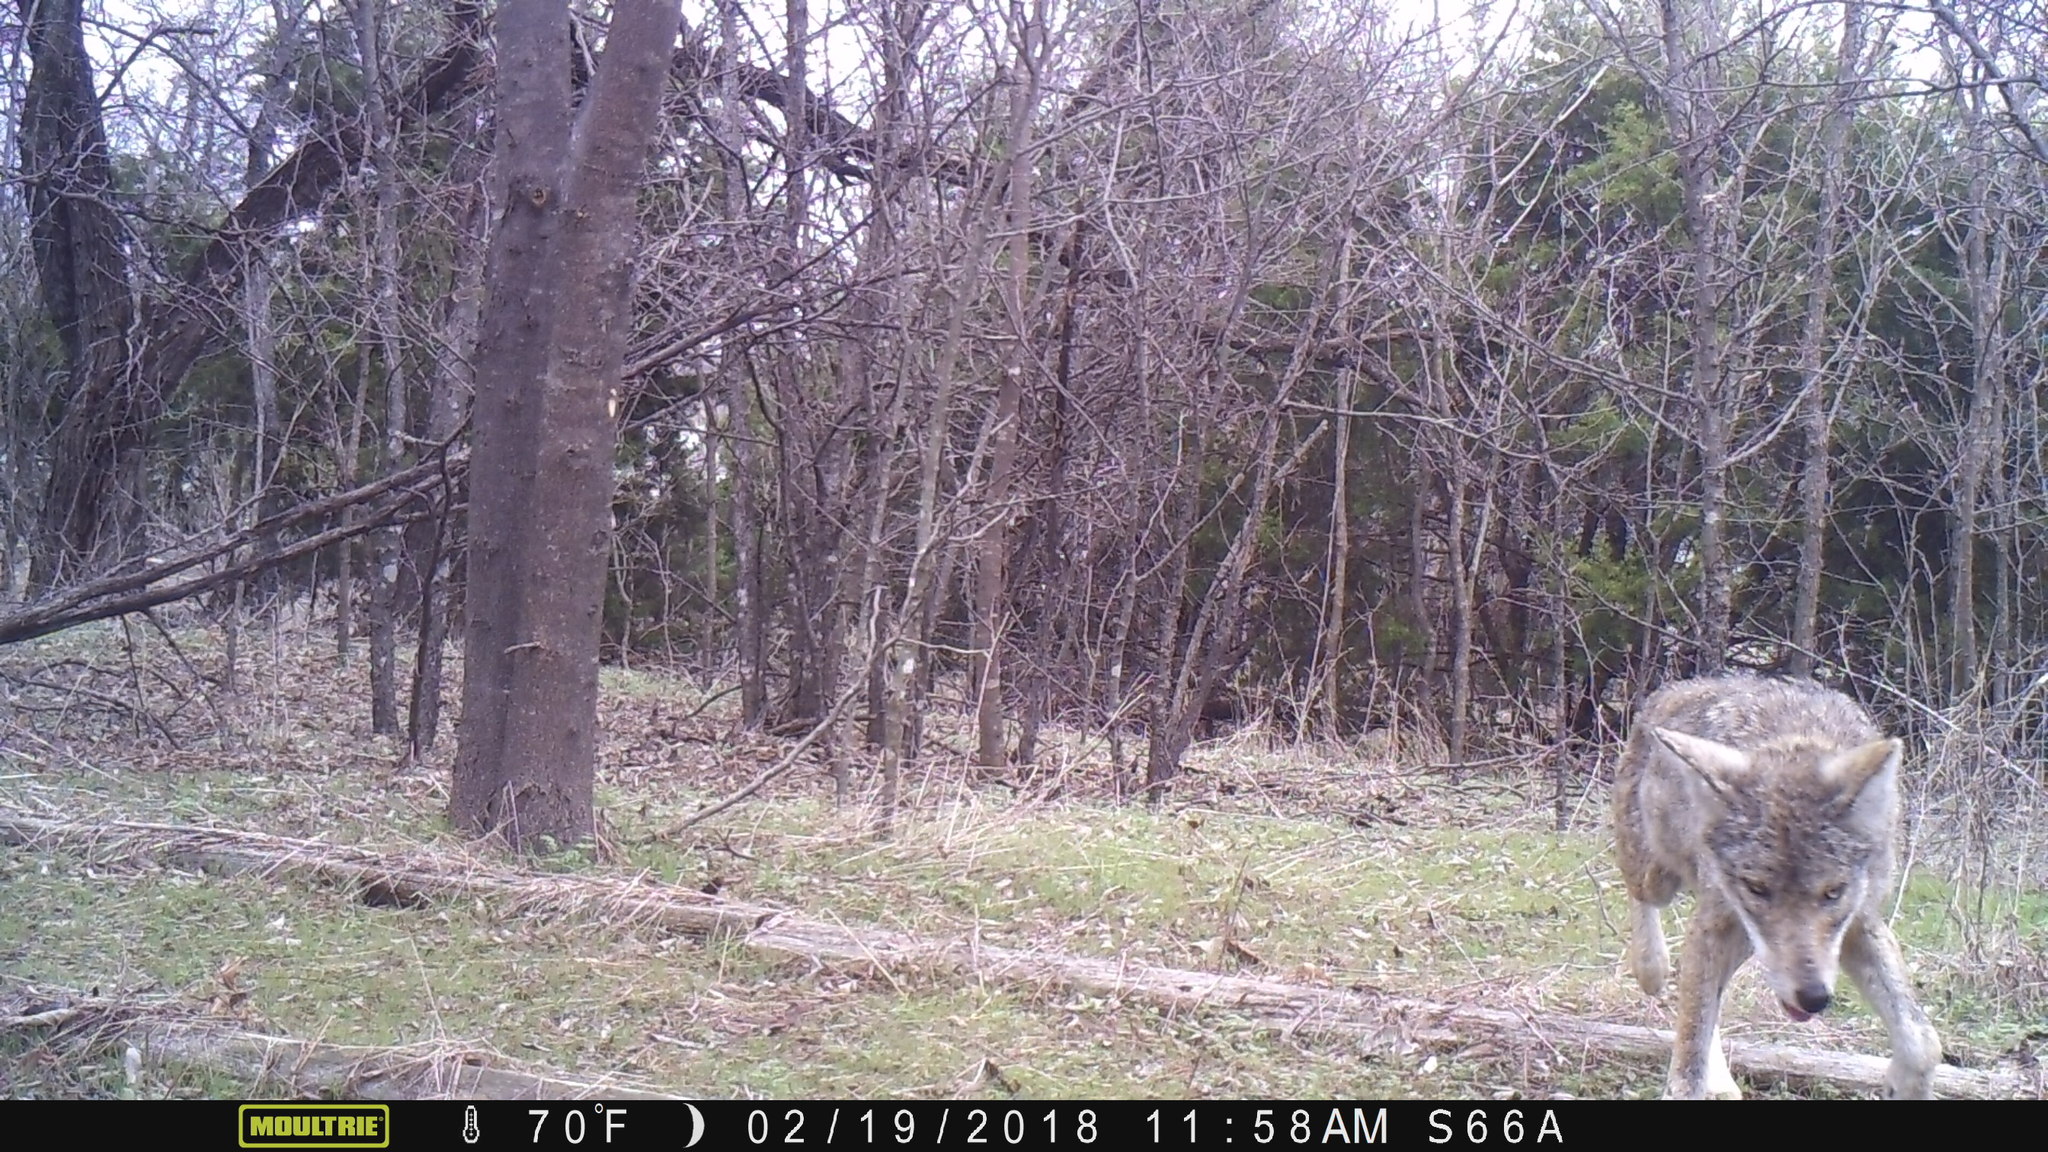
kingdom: Animalia
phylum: Chordata
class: Mammalia
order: Carnivora
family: Canidae
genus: Canis
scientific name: Canis latrans
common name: Coyote
